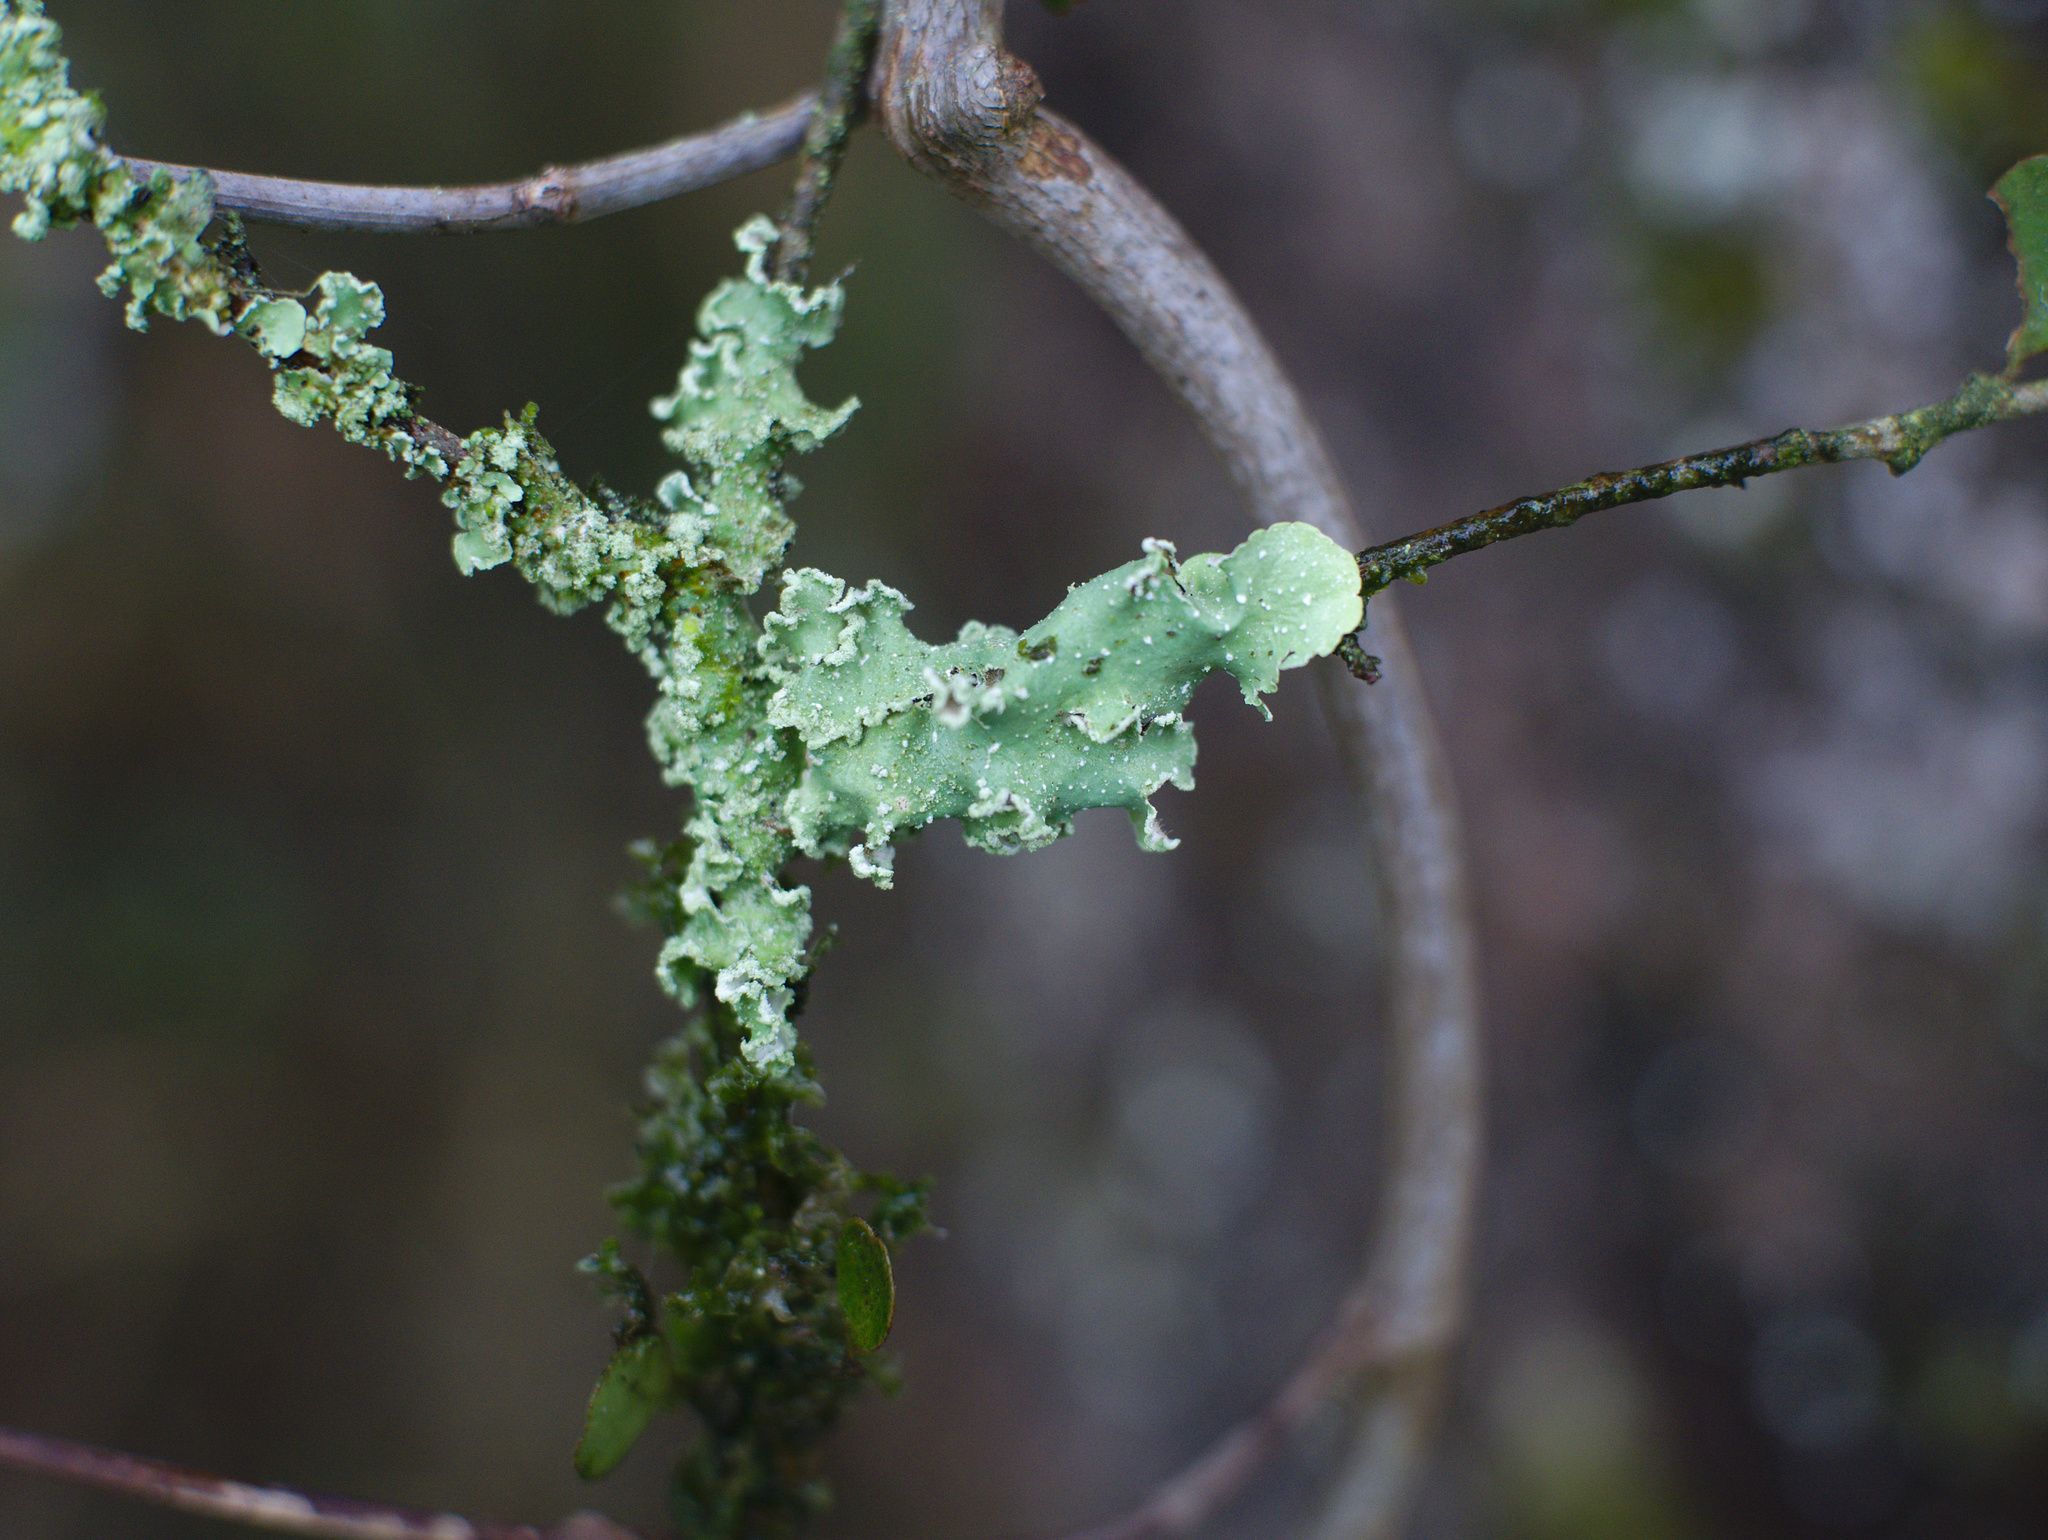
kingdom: Fungi
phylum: Ascomycota
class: Lecanoromycetes
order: Lecanorales
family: Parmeliaceae
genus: Punctelia
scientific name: Punctelia borreri
